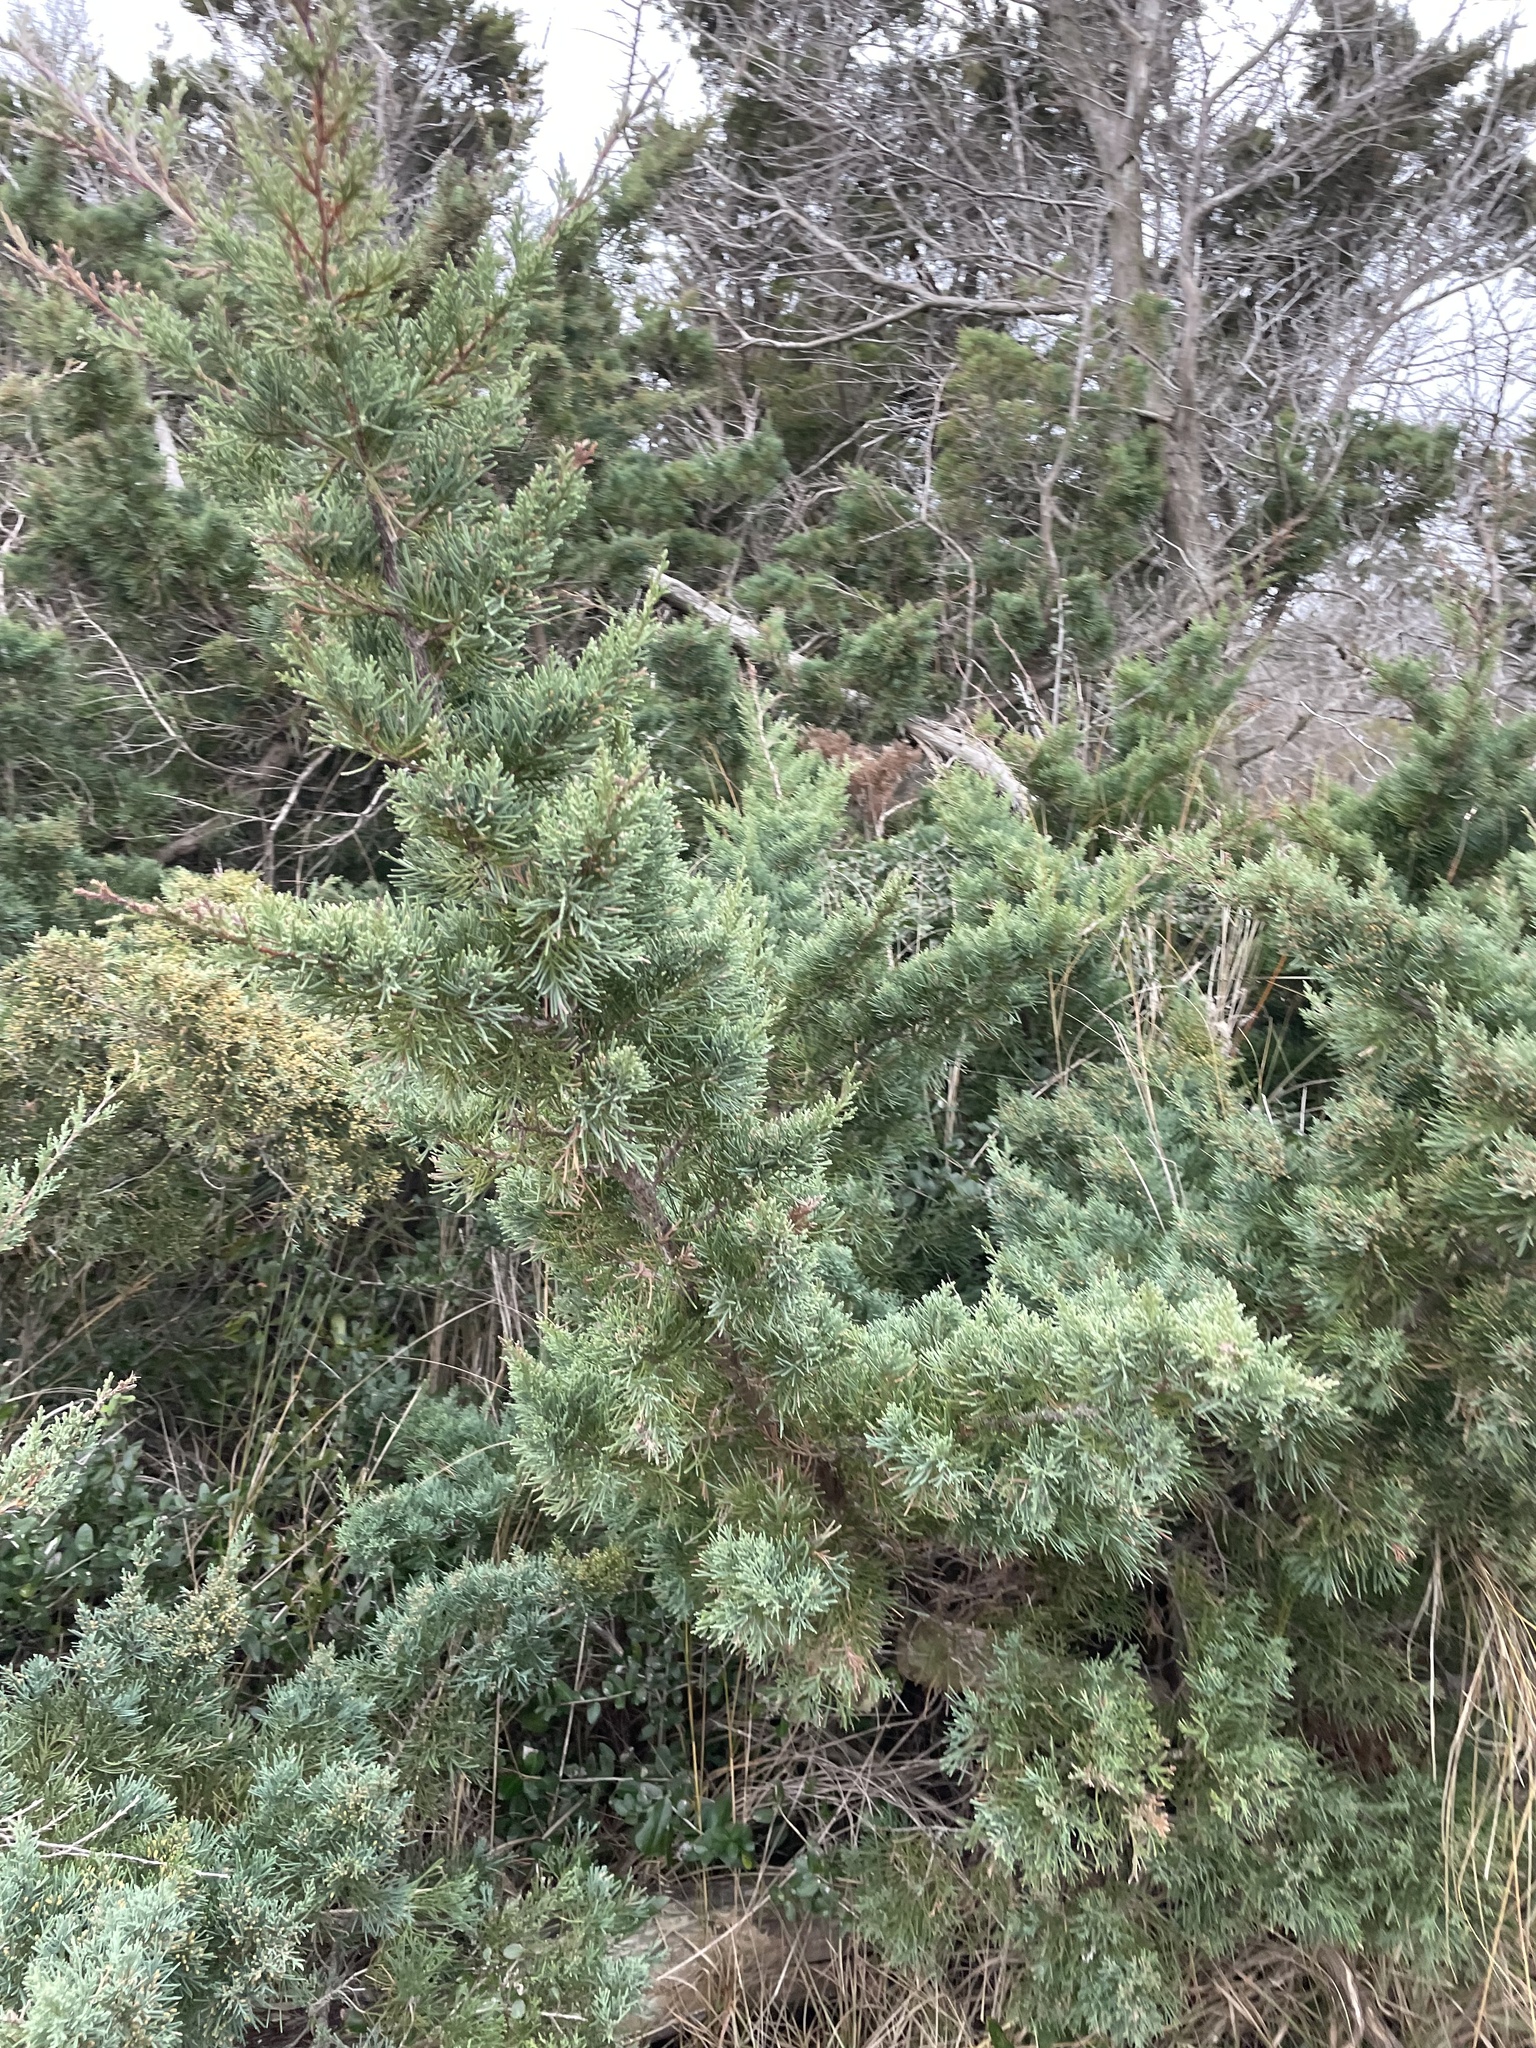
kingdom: Plantae
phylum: Tracheophyta
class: Pinopsida
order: Pinales
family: Cupressaceae
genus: Juniperus
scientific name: Juniperus virginiana
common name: Red juniper
